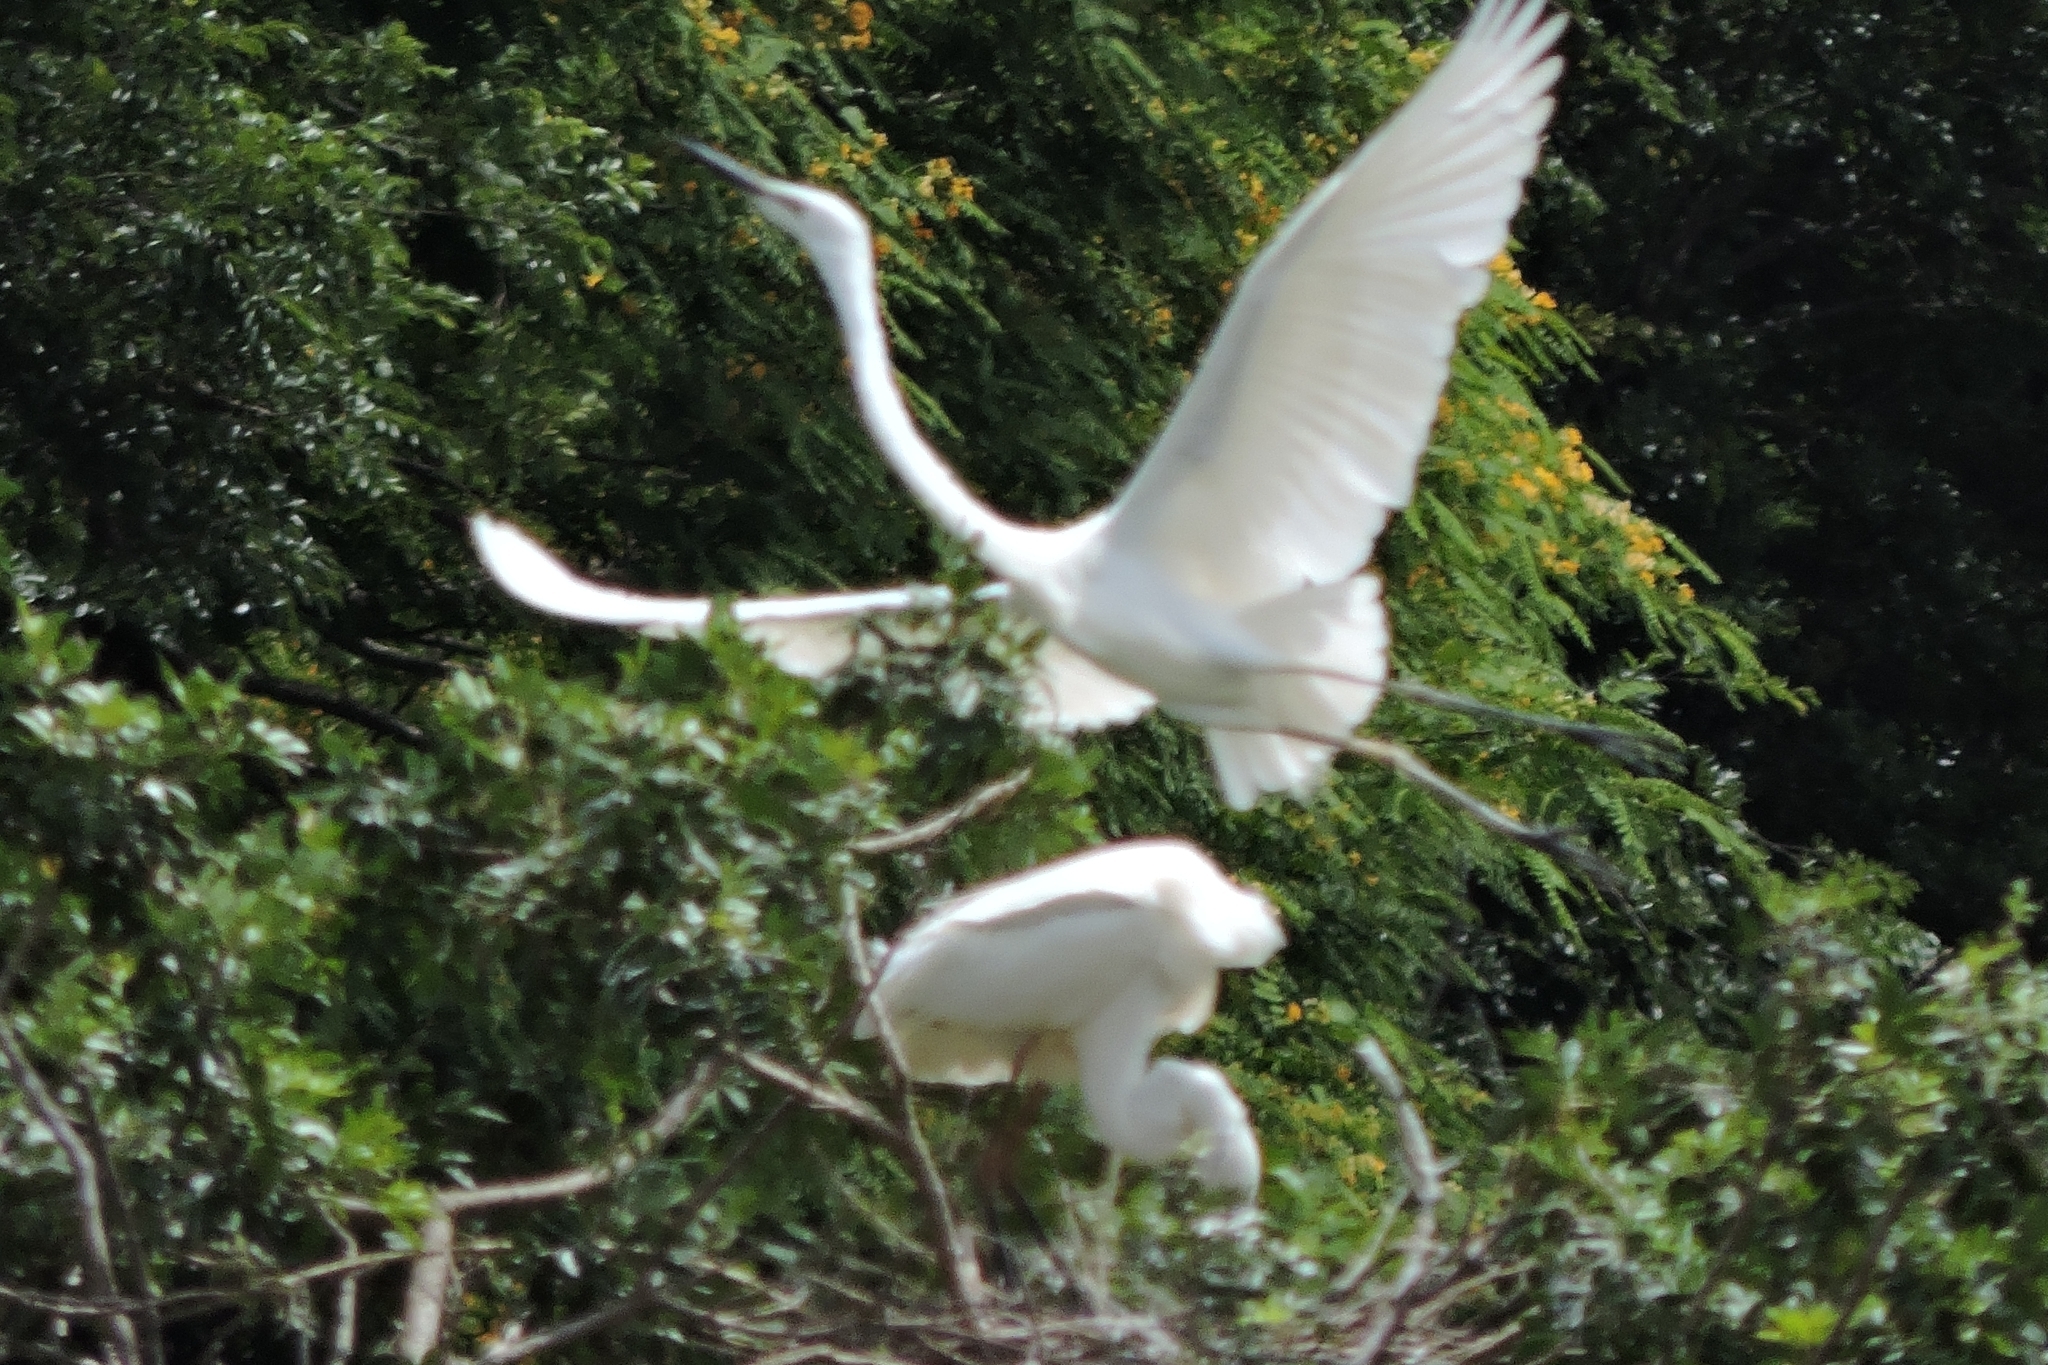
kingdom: Animalia
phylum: Chordata
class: Aves
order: Pelecaniformes
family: Ardeidae
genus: Ardea
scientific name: Ardea alba
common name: Great egret
